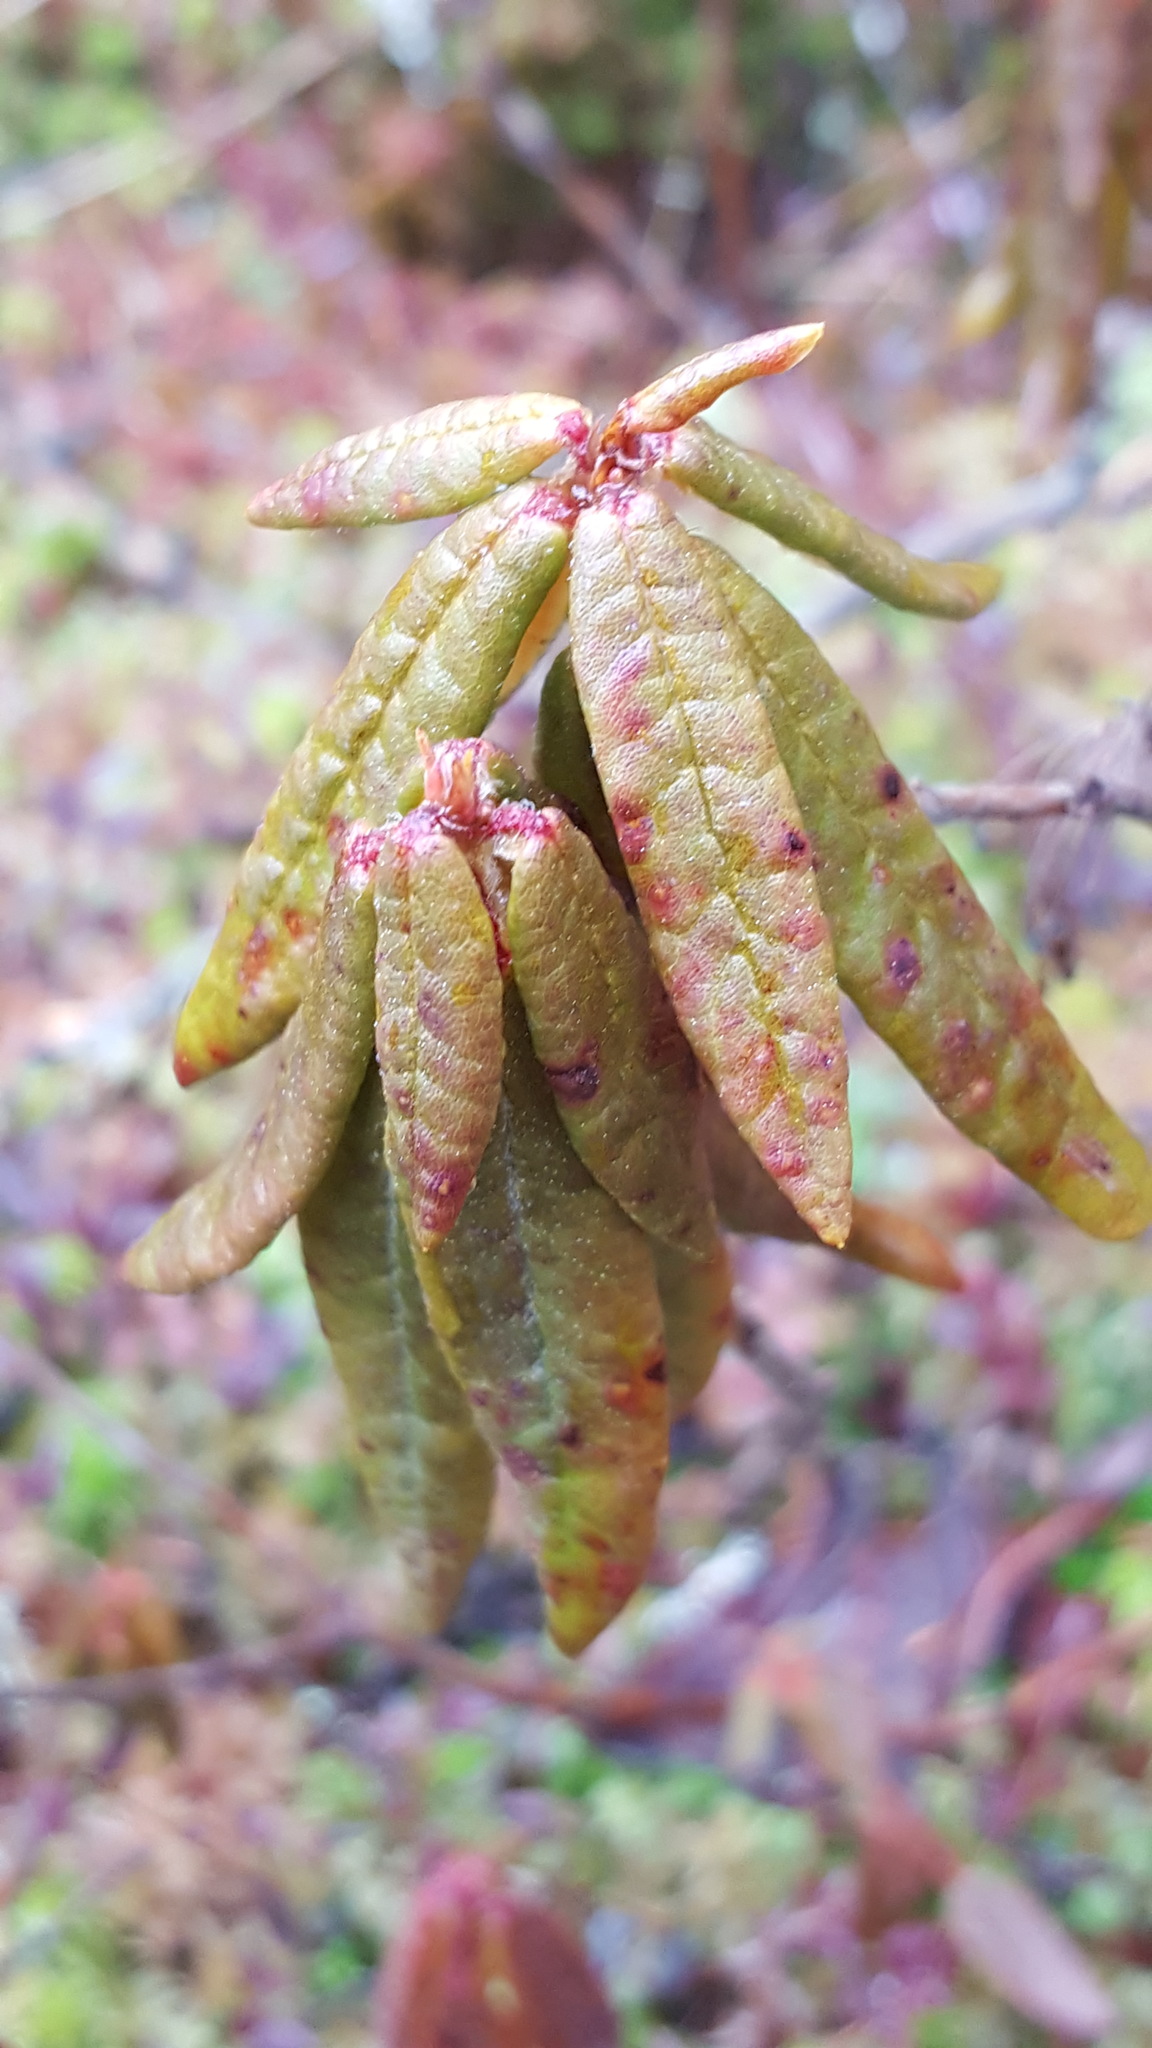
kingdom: Plantae
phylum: Tracheophyta
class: Magnoliopsida
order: Ericales
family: Ericaceae
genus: Rhododendron
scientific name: Rhododendron groenlandicum
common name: Bog labrador tea
